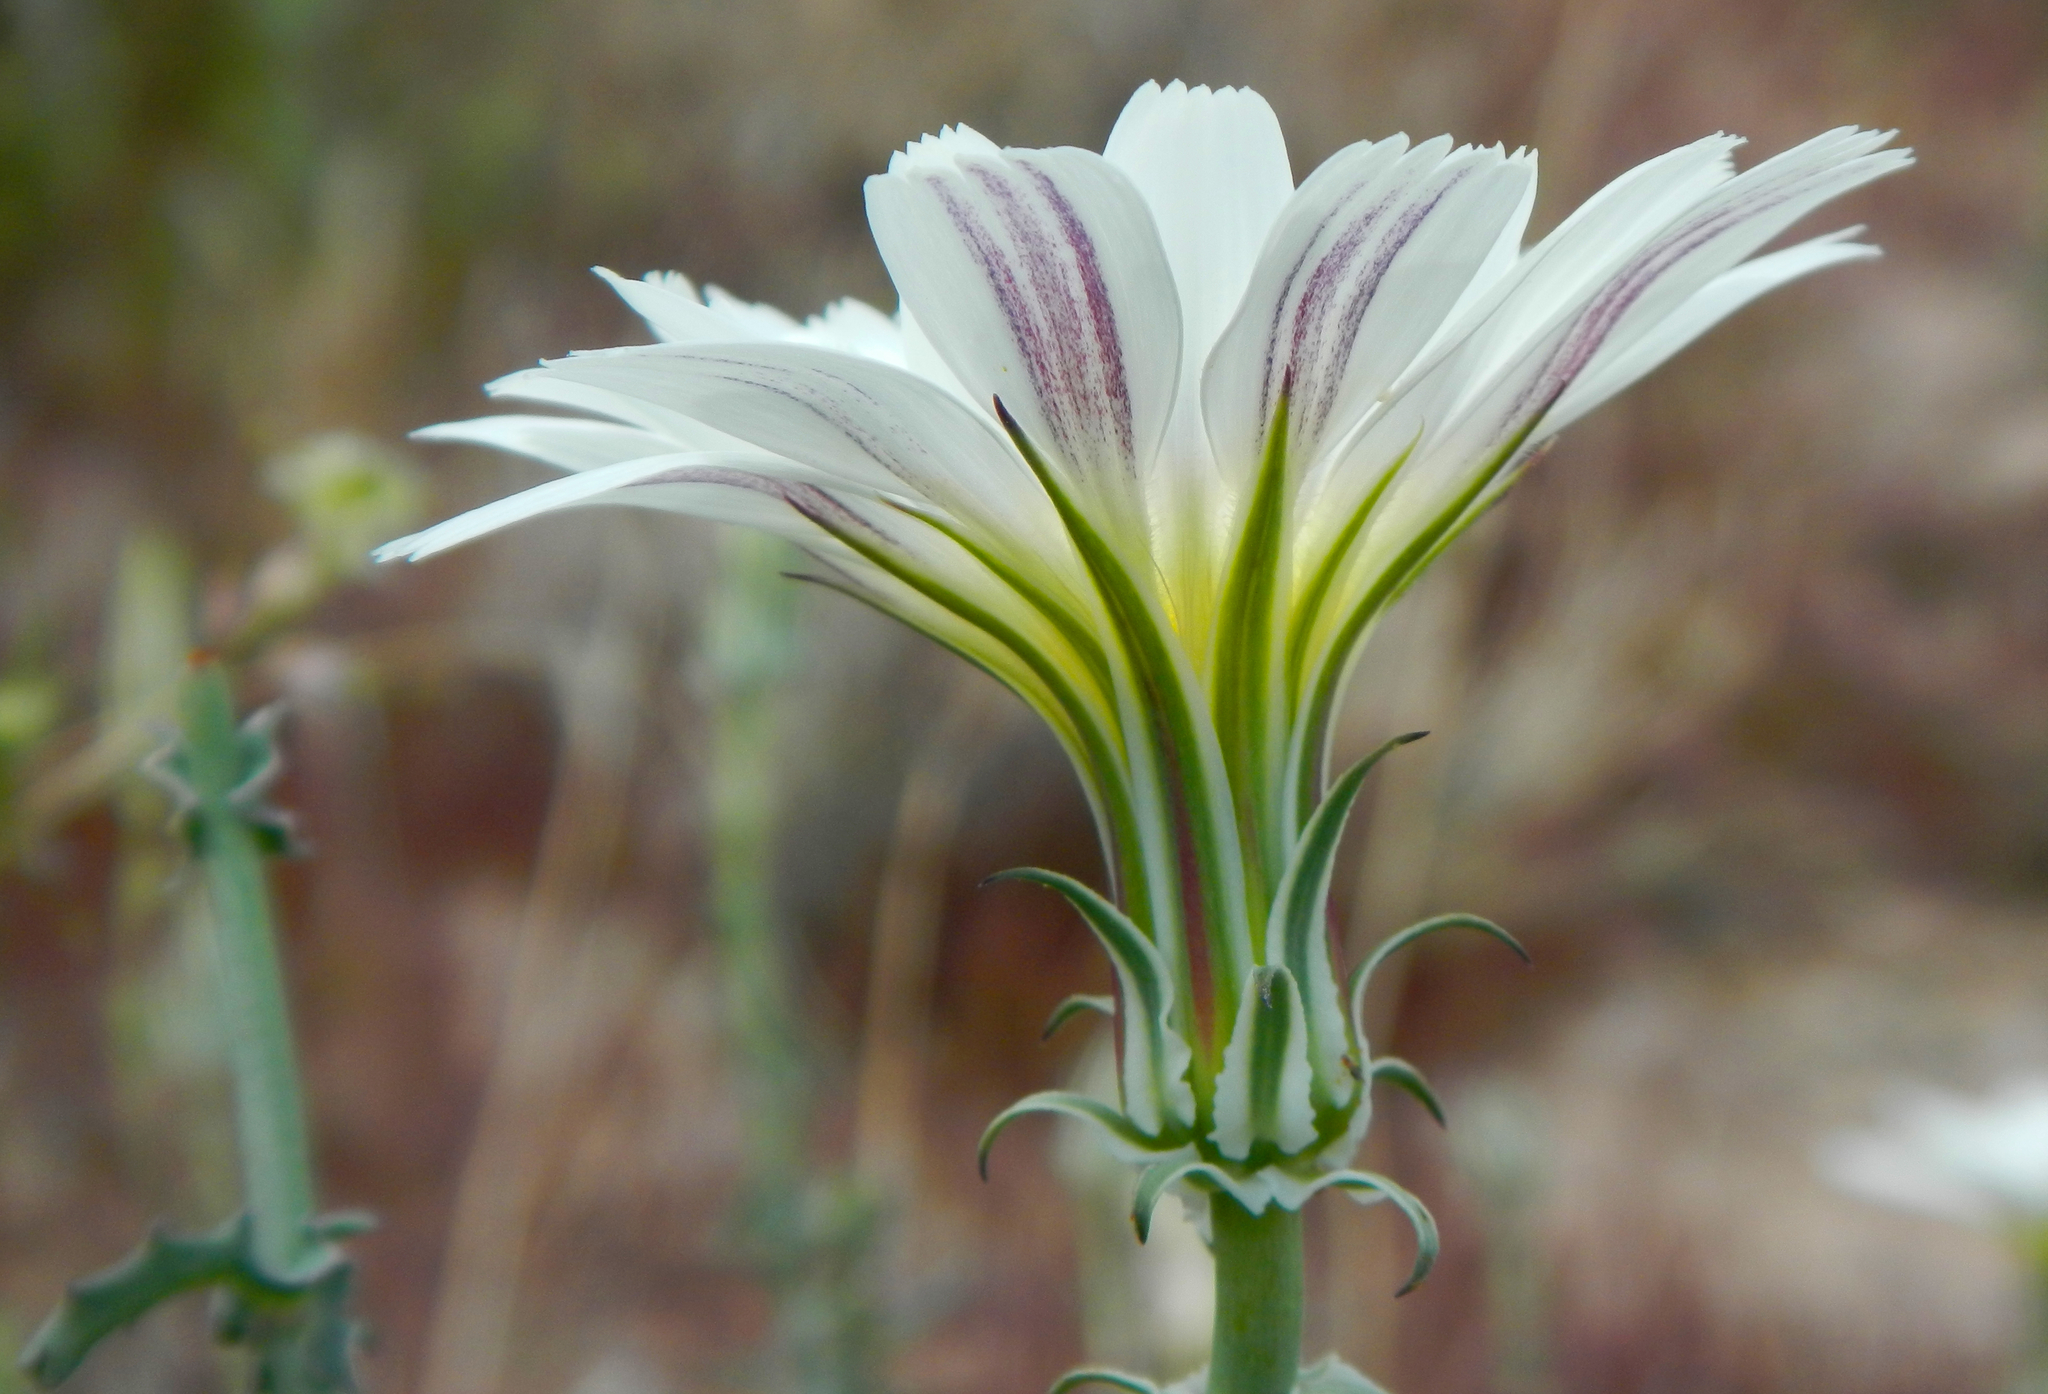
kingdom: Plantae
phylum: Tracheophyta
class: Magnoliopsida
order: Asterales
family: Asteraceae
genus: Rafinesquia
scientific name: Rafinesquia neomexicana
